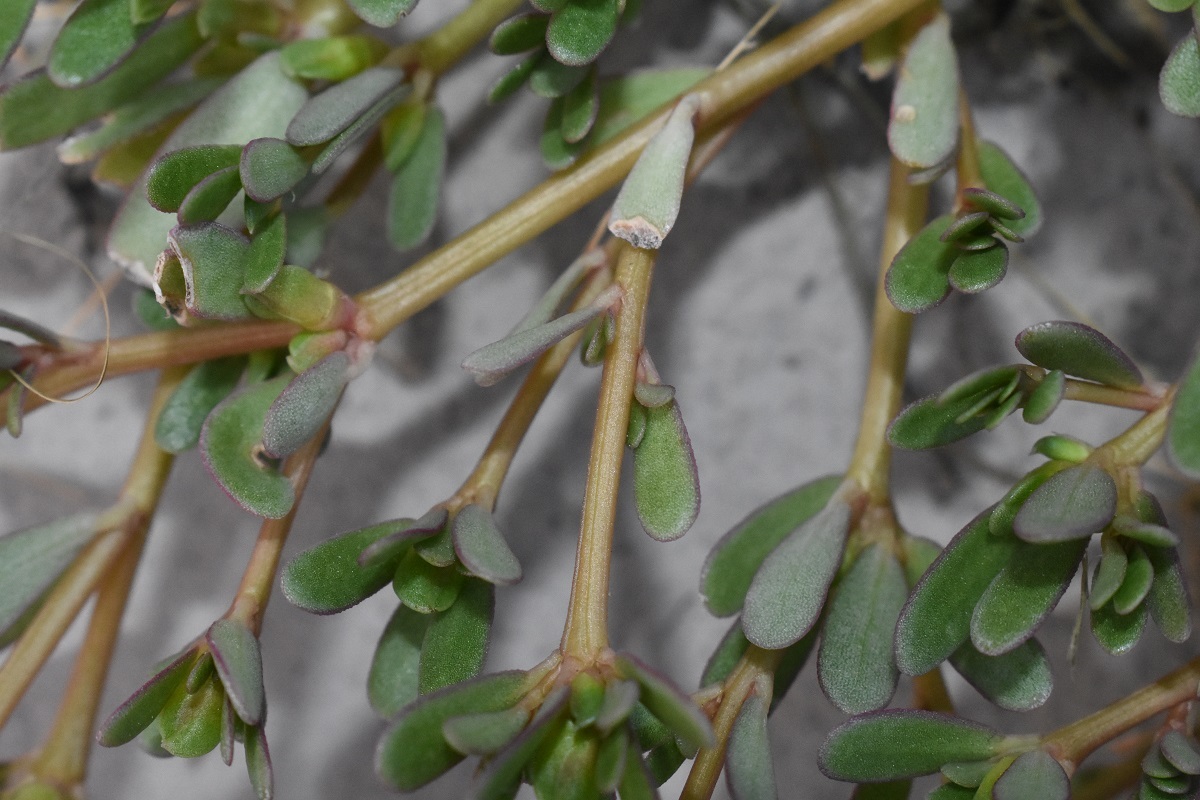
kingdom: Plantae
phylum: Tracheophyta
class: Magnoliopsida
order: Caryophyllales
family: Portulacaceae
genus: Portulaca
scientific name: Portulaca oleracea
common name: Common purslane
